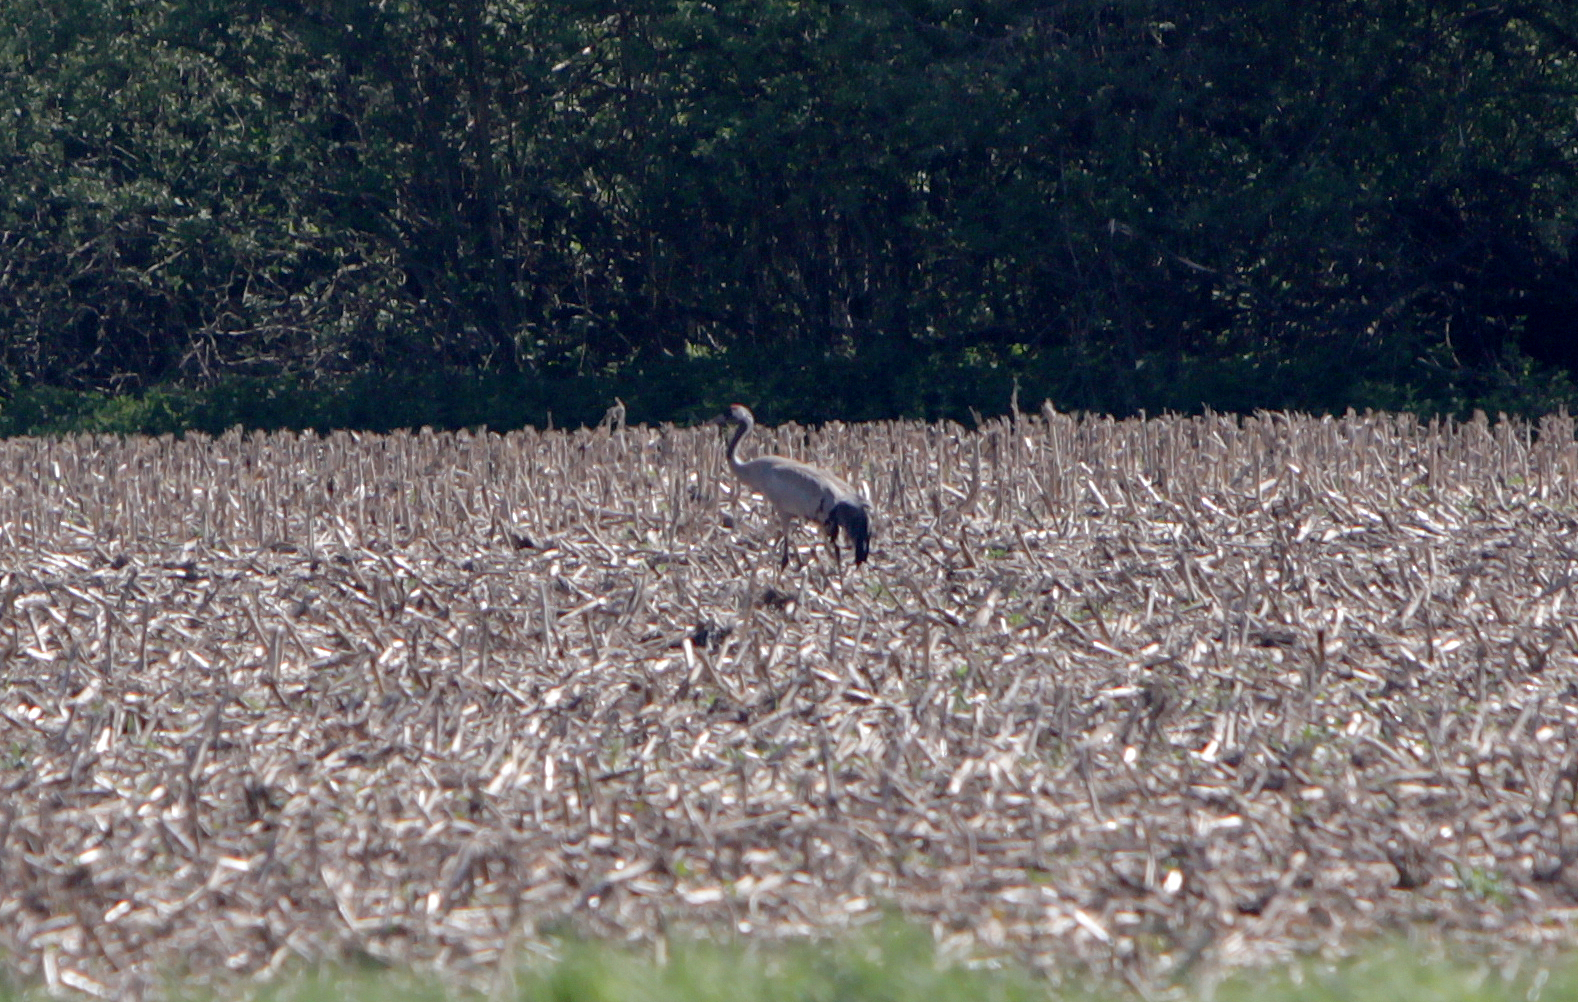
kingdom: Animalia
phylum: Chordata
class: Aves
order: Gruiformes
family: Gruidae
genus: Grus
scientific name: Grus grus
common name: Common crane
